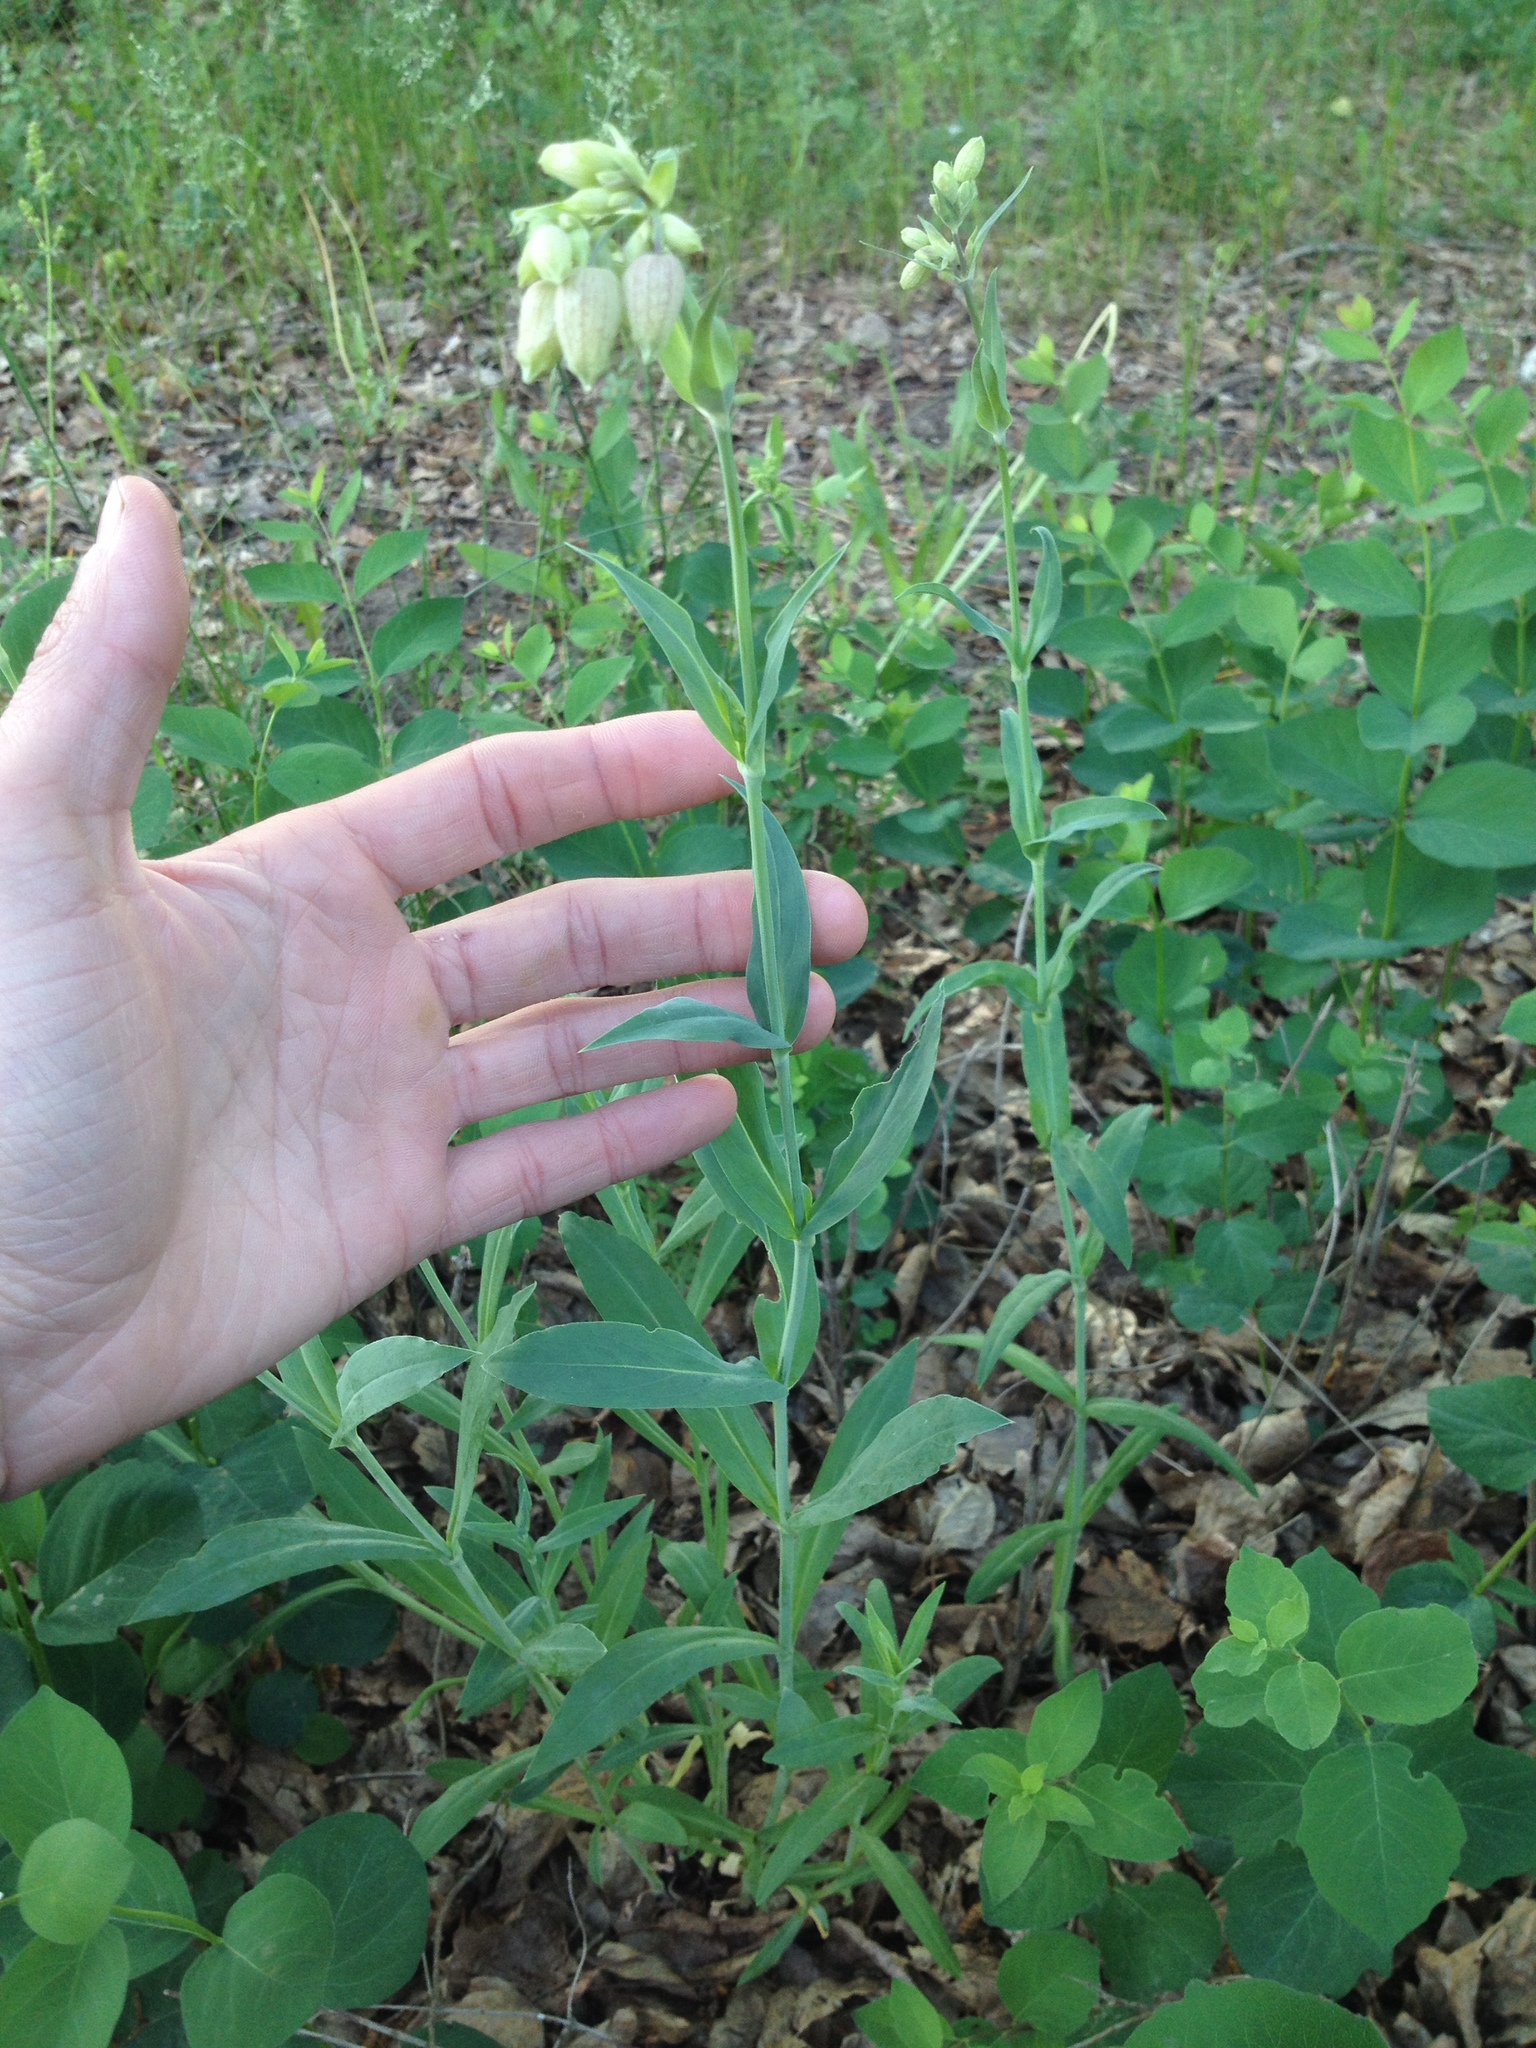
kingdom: Plantae
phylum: Tracheophyta
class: Magnoliopsida
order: Caryophyllales
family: Caryophyllaceae
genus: Silene
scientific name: Silene vulgaris
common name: Bladder campion
